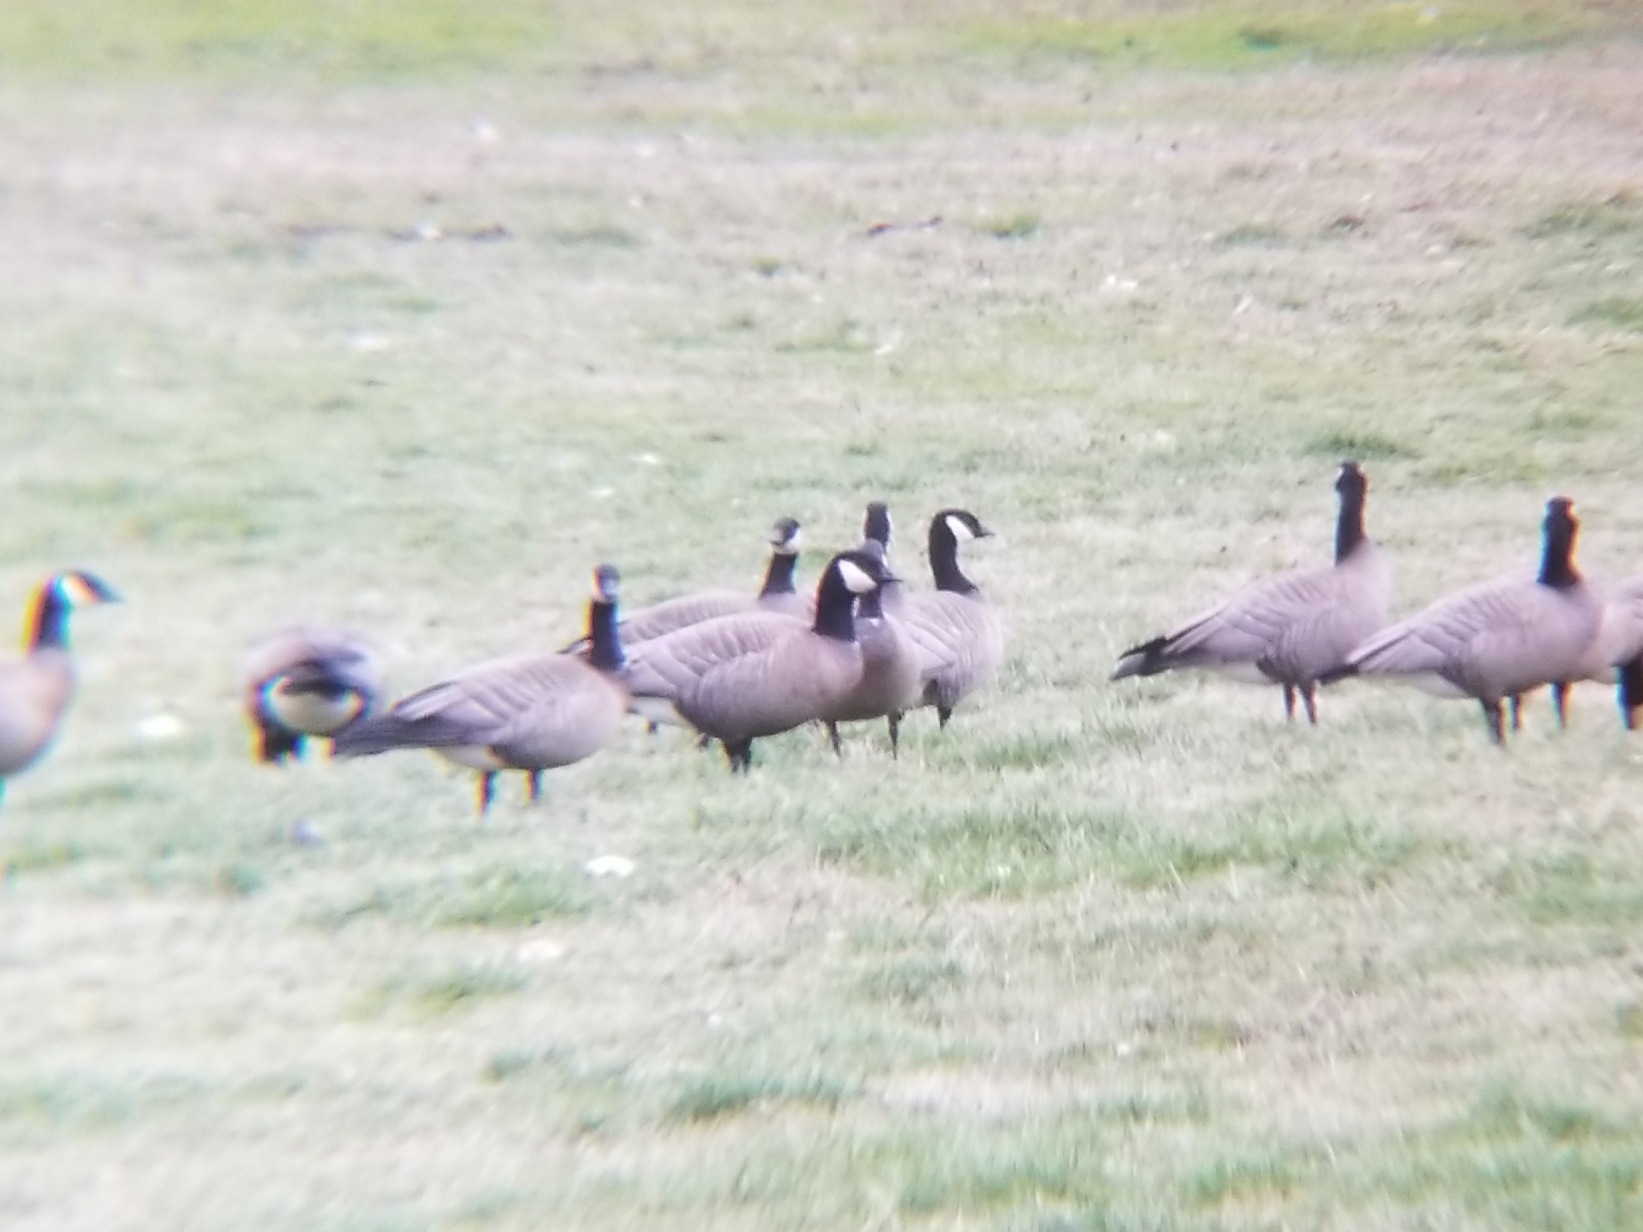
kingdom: Animalia
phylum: Chordata
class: Aves
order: Anseriformes
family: Anatidae
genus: Branta
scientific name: Branta hutchinsii
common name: Cackling goose
